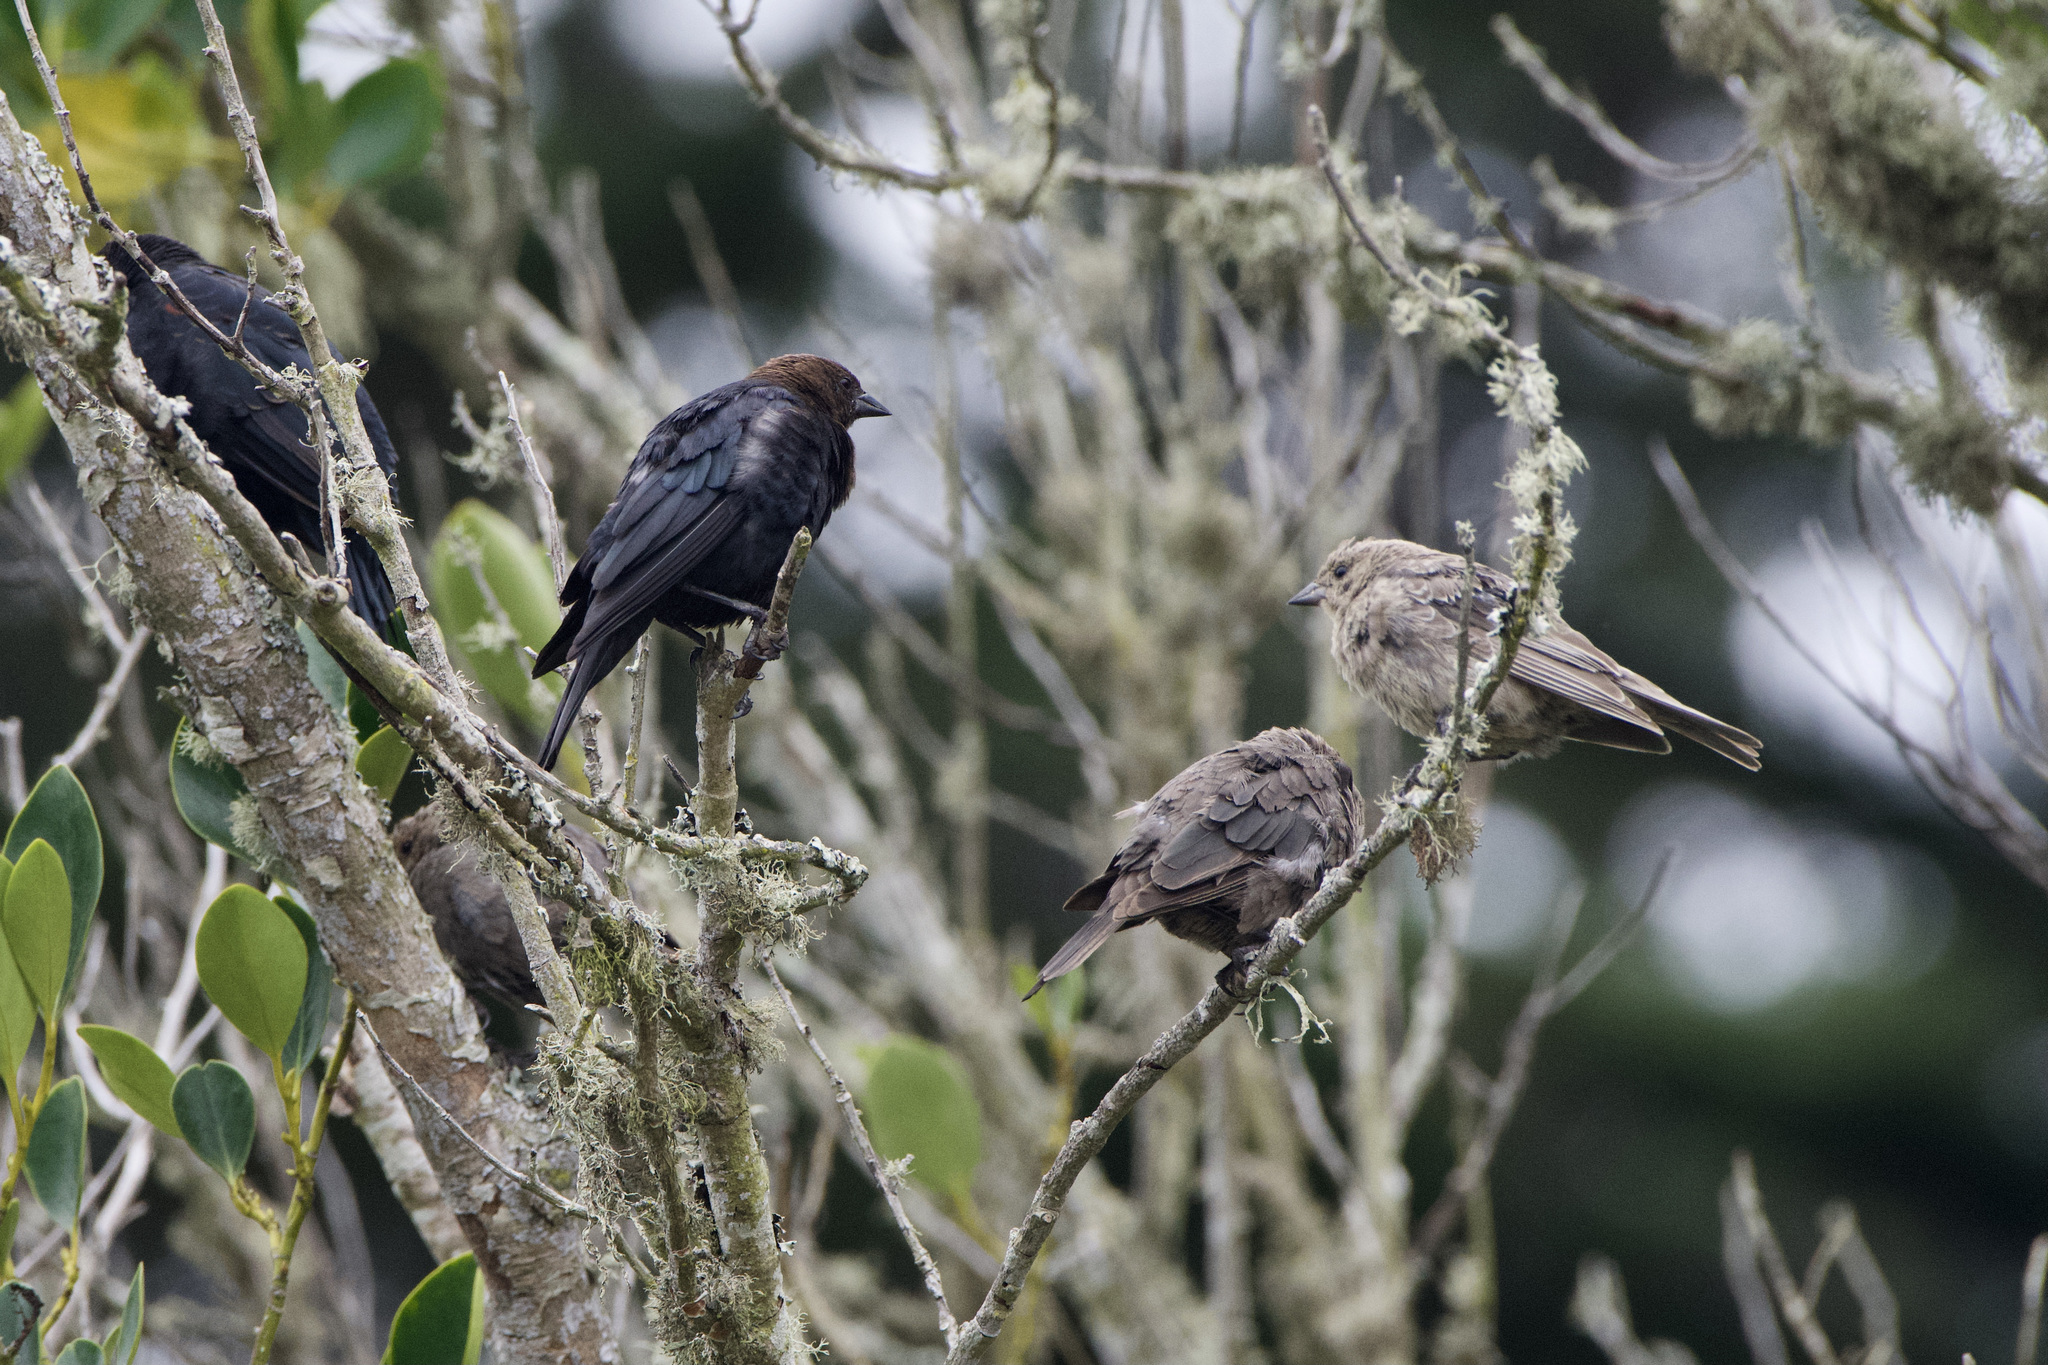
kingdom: Animalia
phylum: Chordata
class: Aves
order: Passeriformes
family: Icteridae
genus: Molothrus
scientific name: Molothrus ater
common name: Brown-headed cowbird
